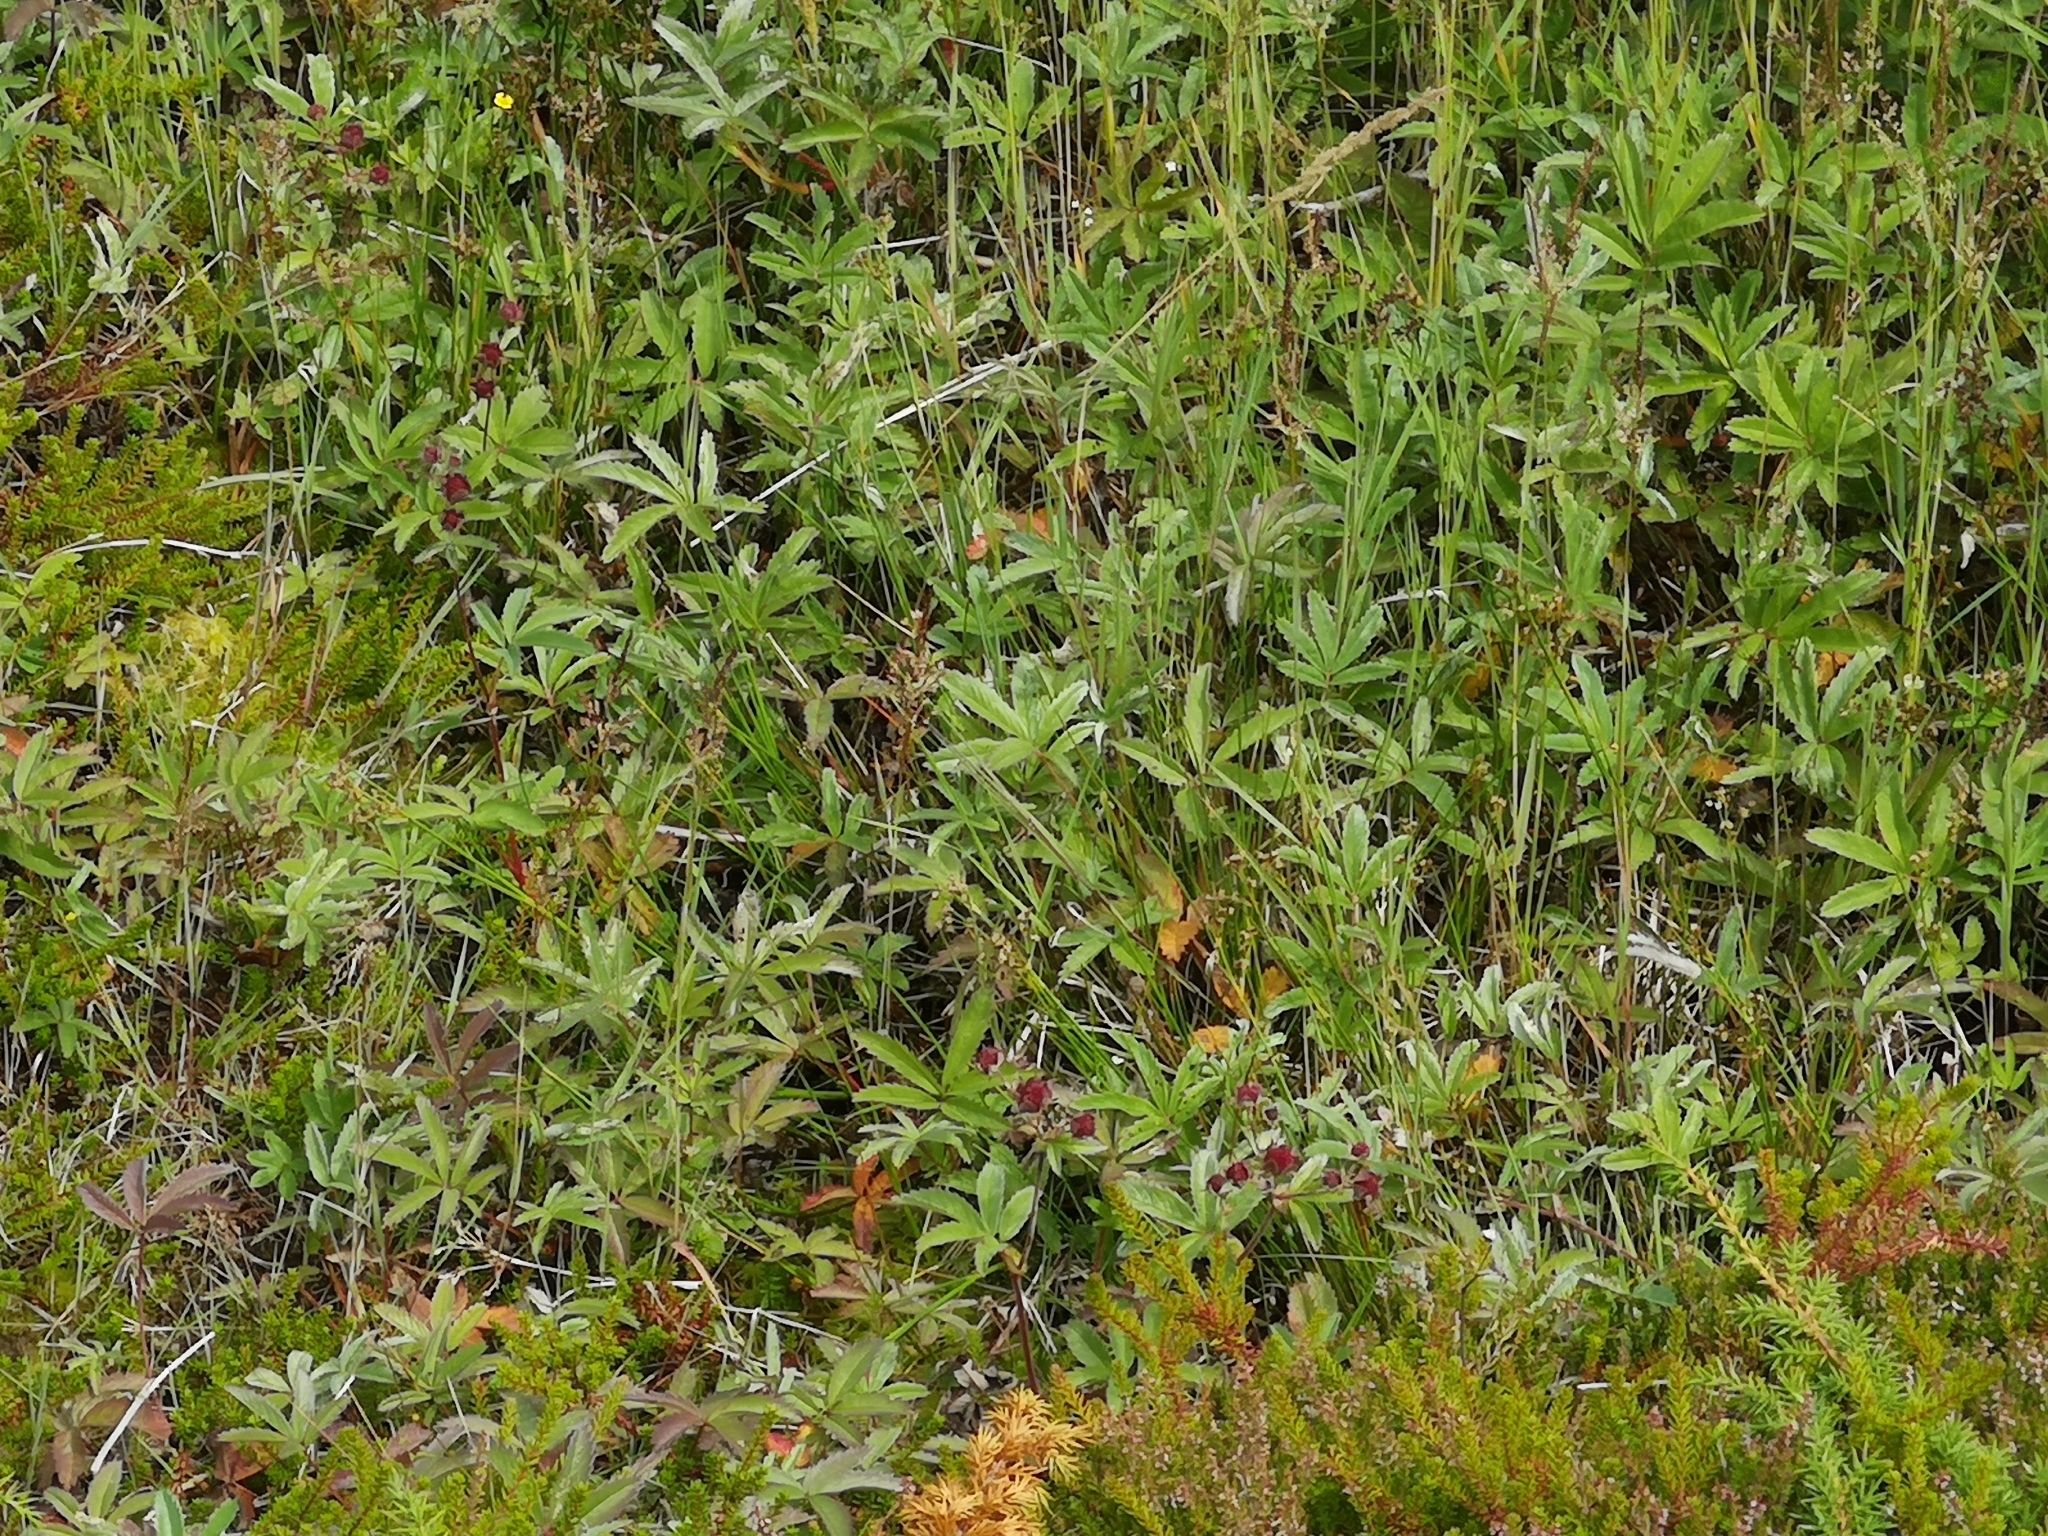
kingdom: Plantae
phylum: Tracheophyta
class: Magnoliopsida
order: Rosales
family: Rosaceae
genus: Comarum
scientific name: Comarum palustre
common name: Marsh cinquefoil
